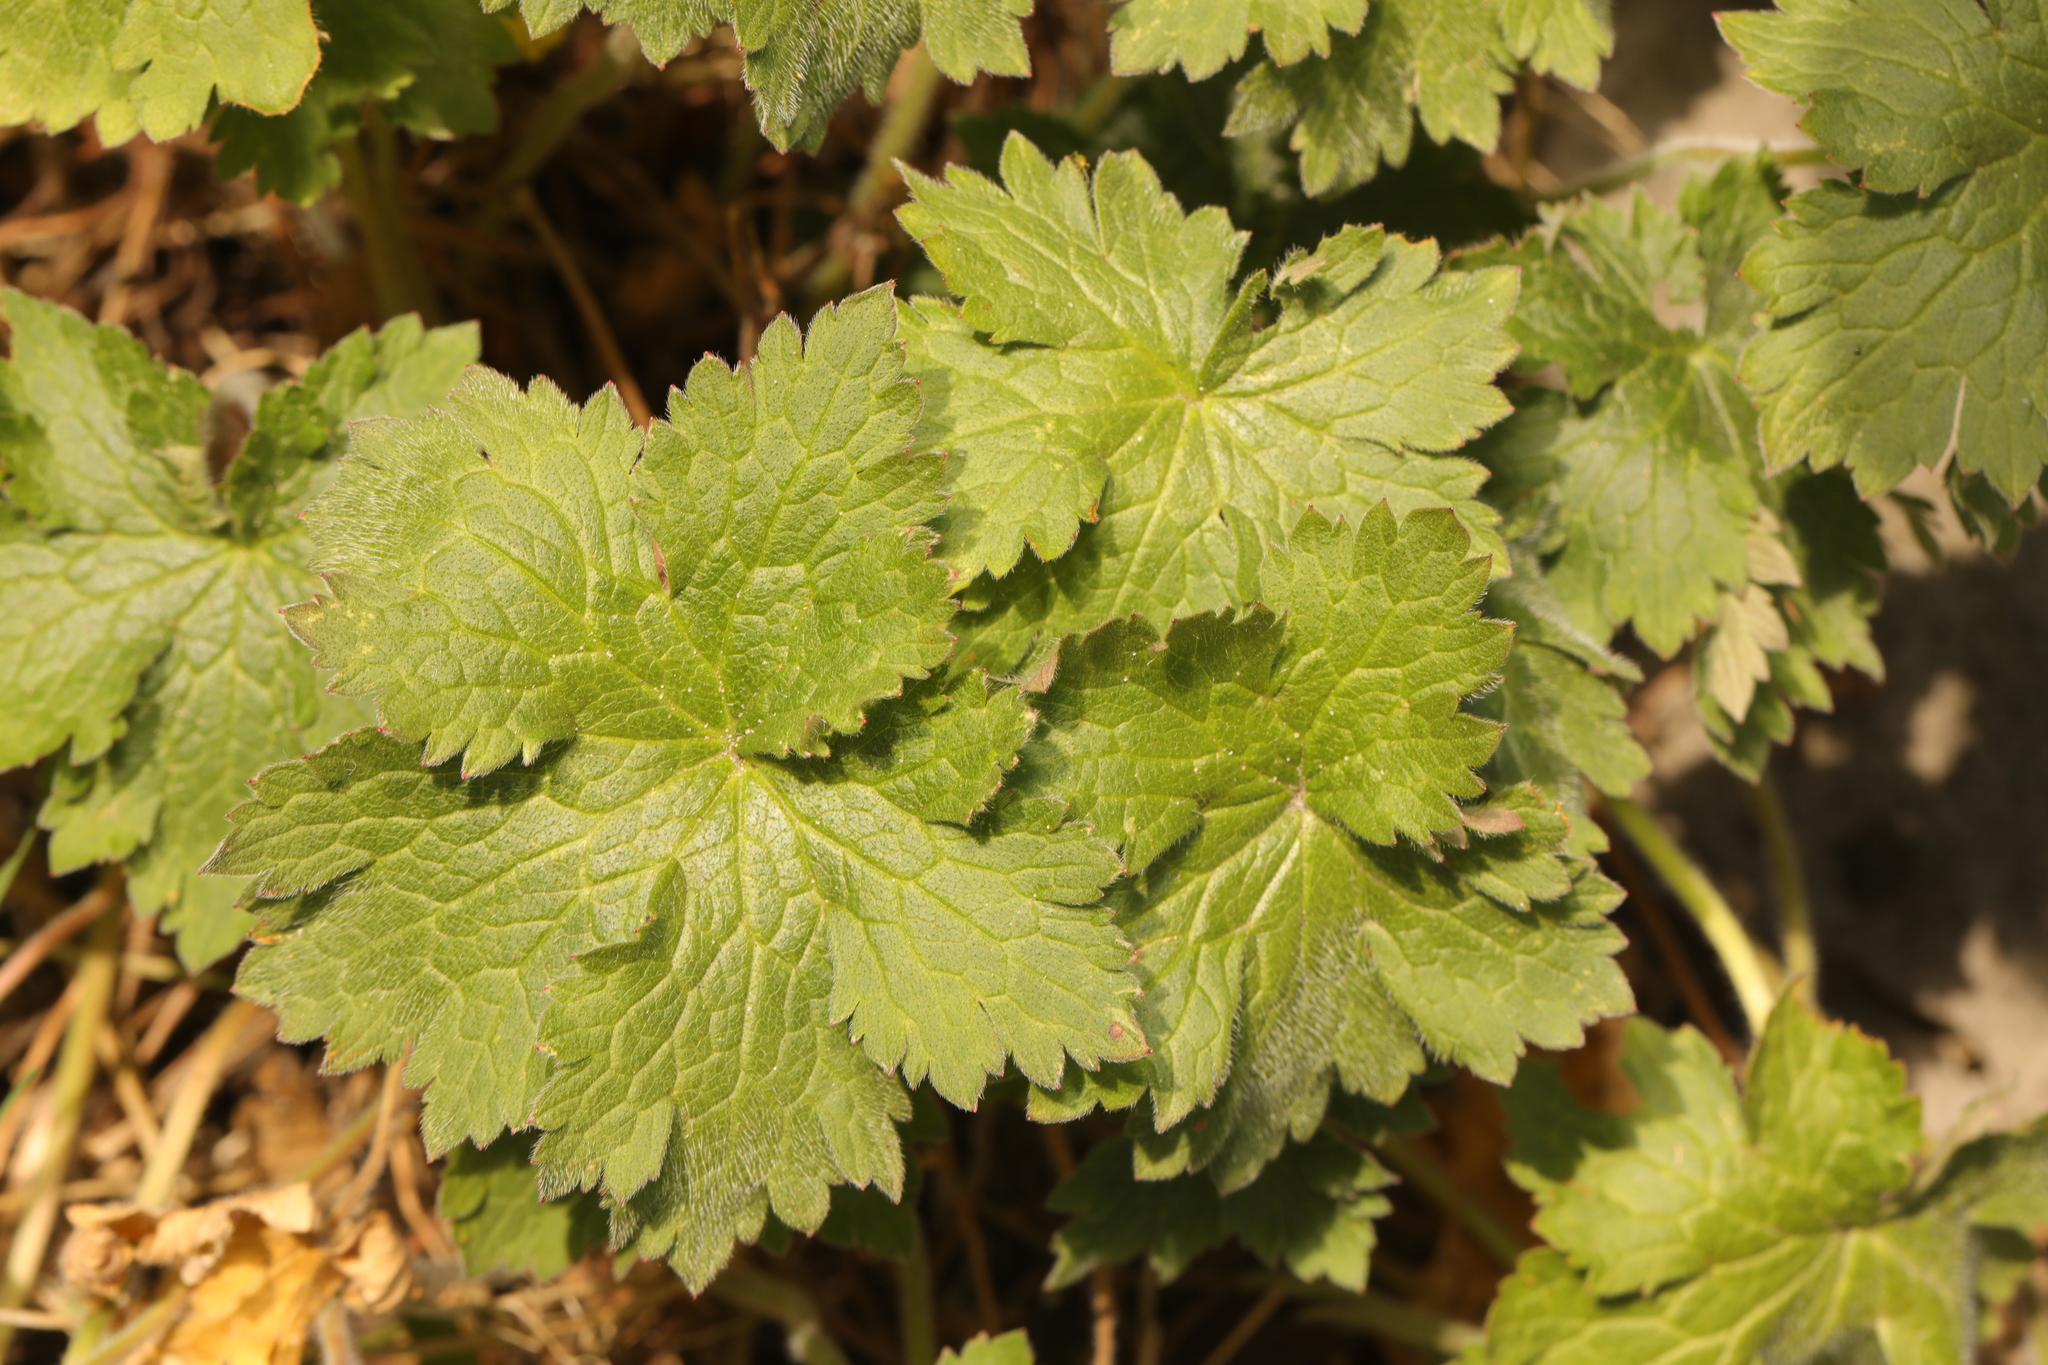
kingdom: Plantae
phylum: Tracheophyta
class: Magnoliopsida
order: Geraniales
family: Geraniaceae
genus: Geranium
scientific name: Geranium phaeum
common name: Dusky crane's-bill
